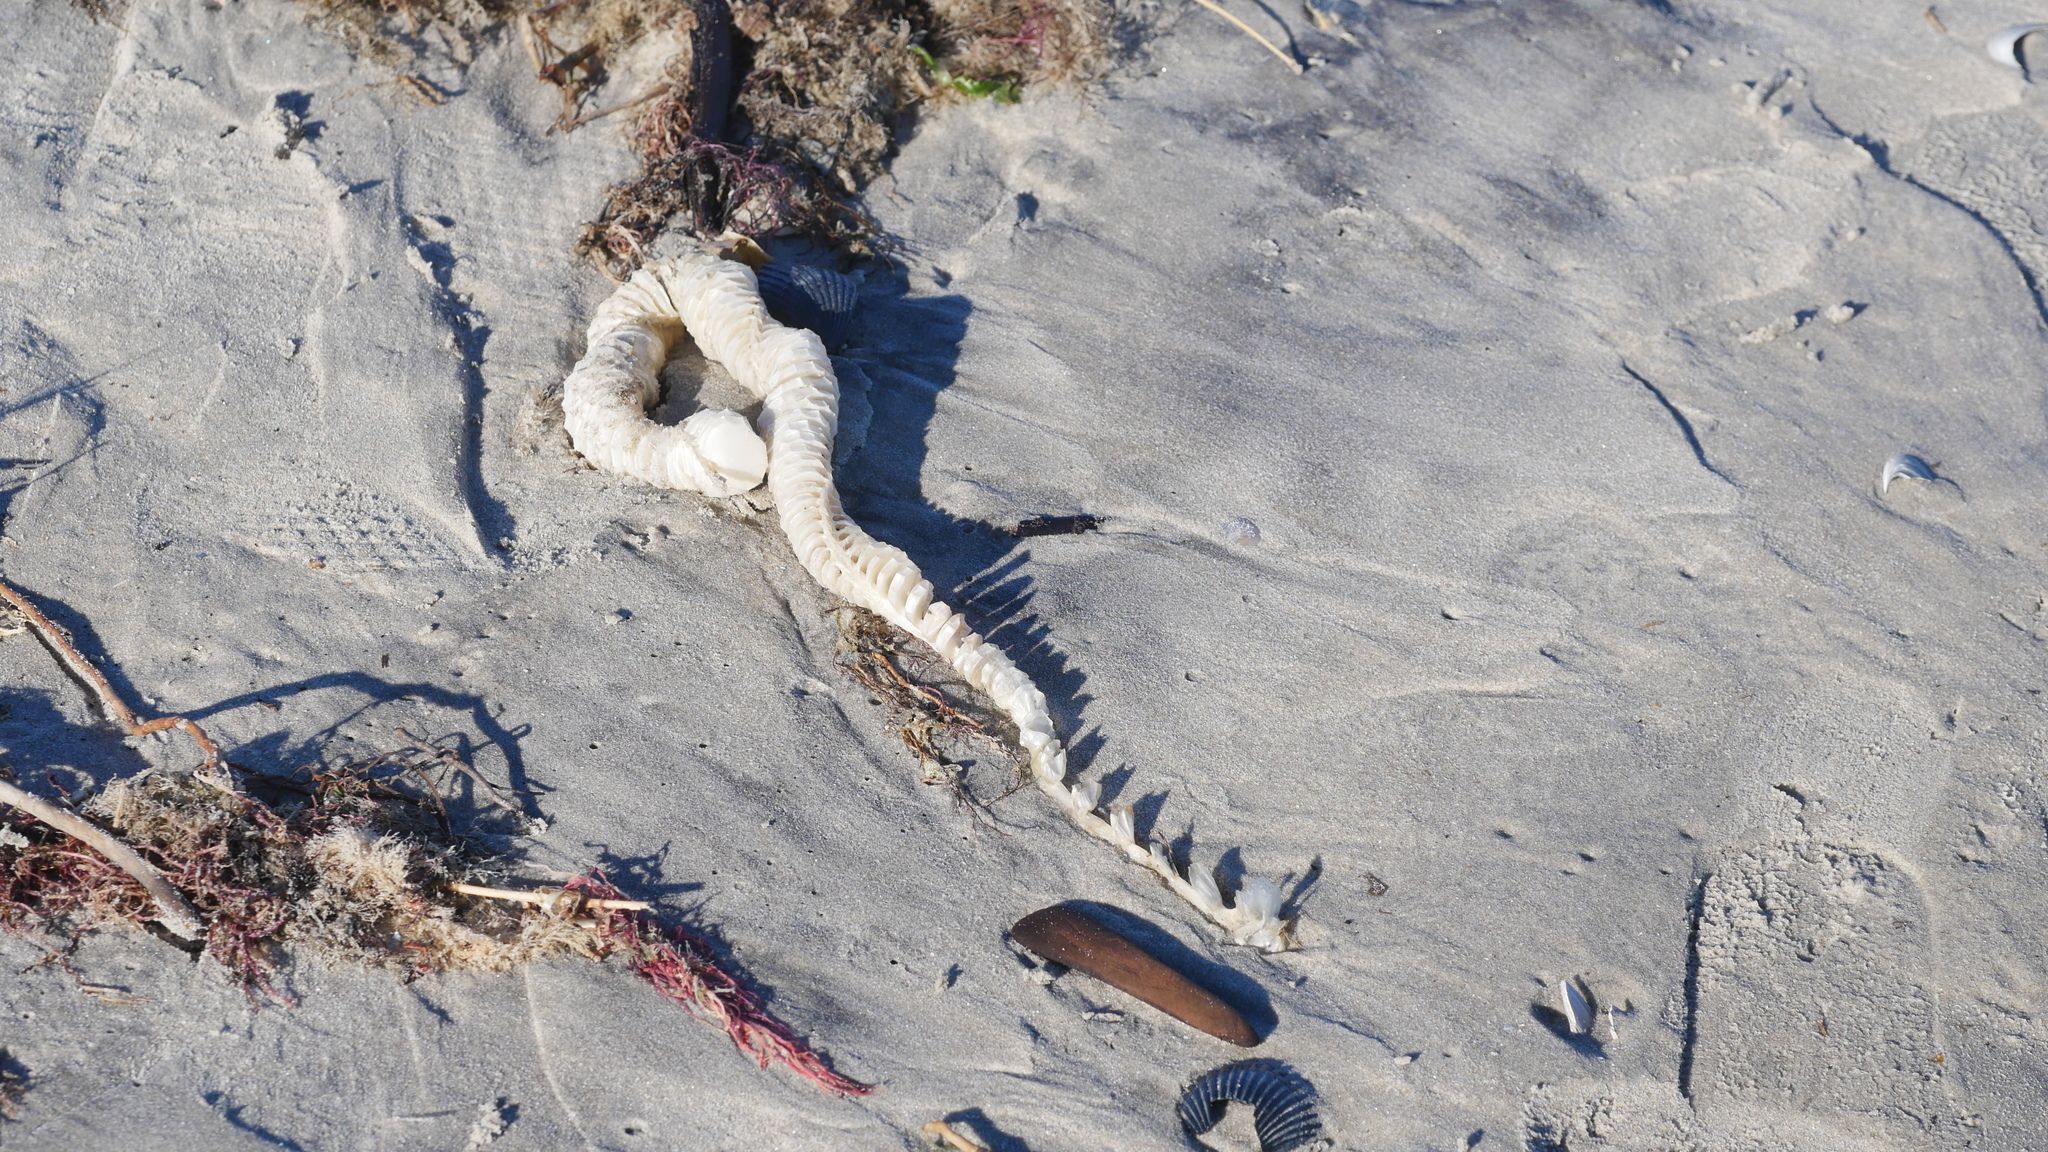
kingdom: Animalia
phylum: Mollusca
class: Gastropoda
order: Neogastropoda
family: Busyconidae
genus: Busycon
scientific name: Busycon carica
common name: Knobbed whelk
